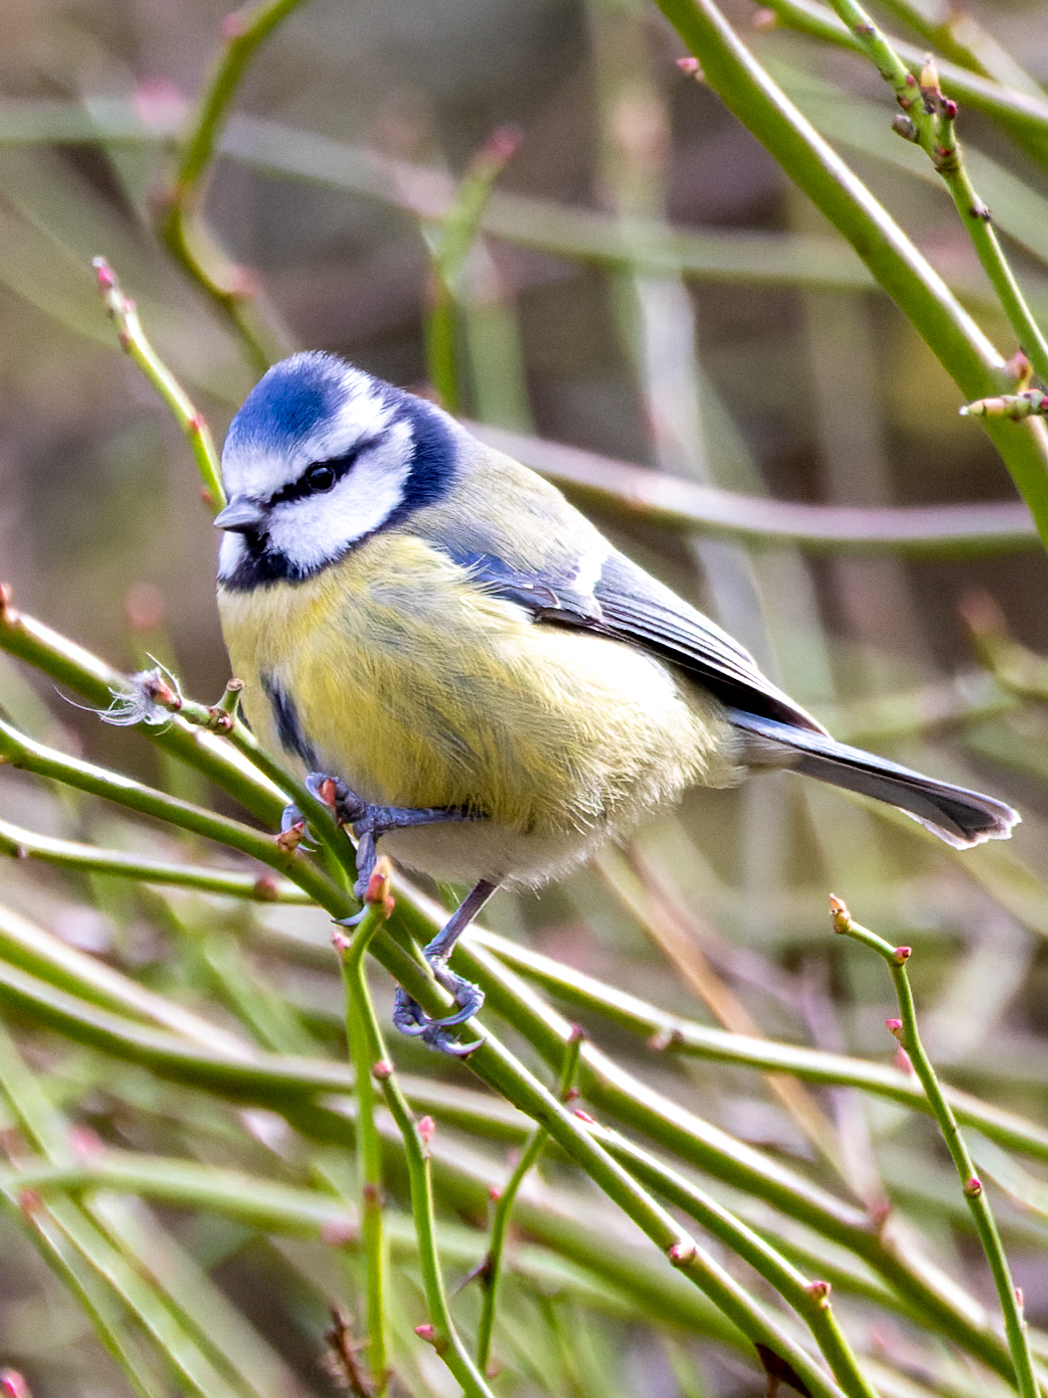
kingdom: Animalia
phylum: Chordata
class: Aves
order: Passeriformes
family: Paridae
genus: Cyanistes
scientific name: Cyanistes caeruleus
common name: Eurasian blue tit
